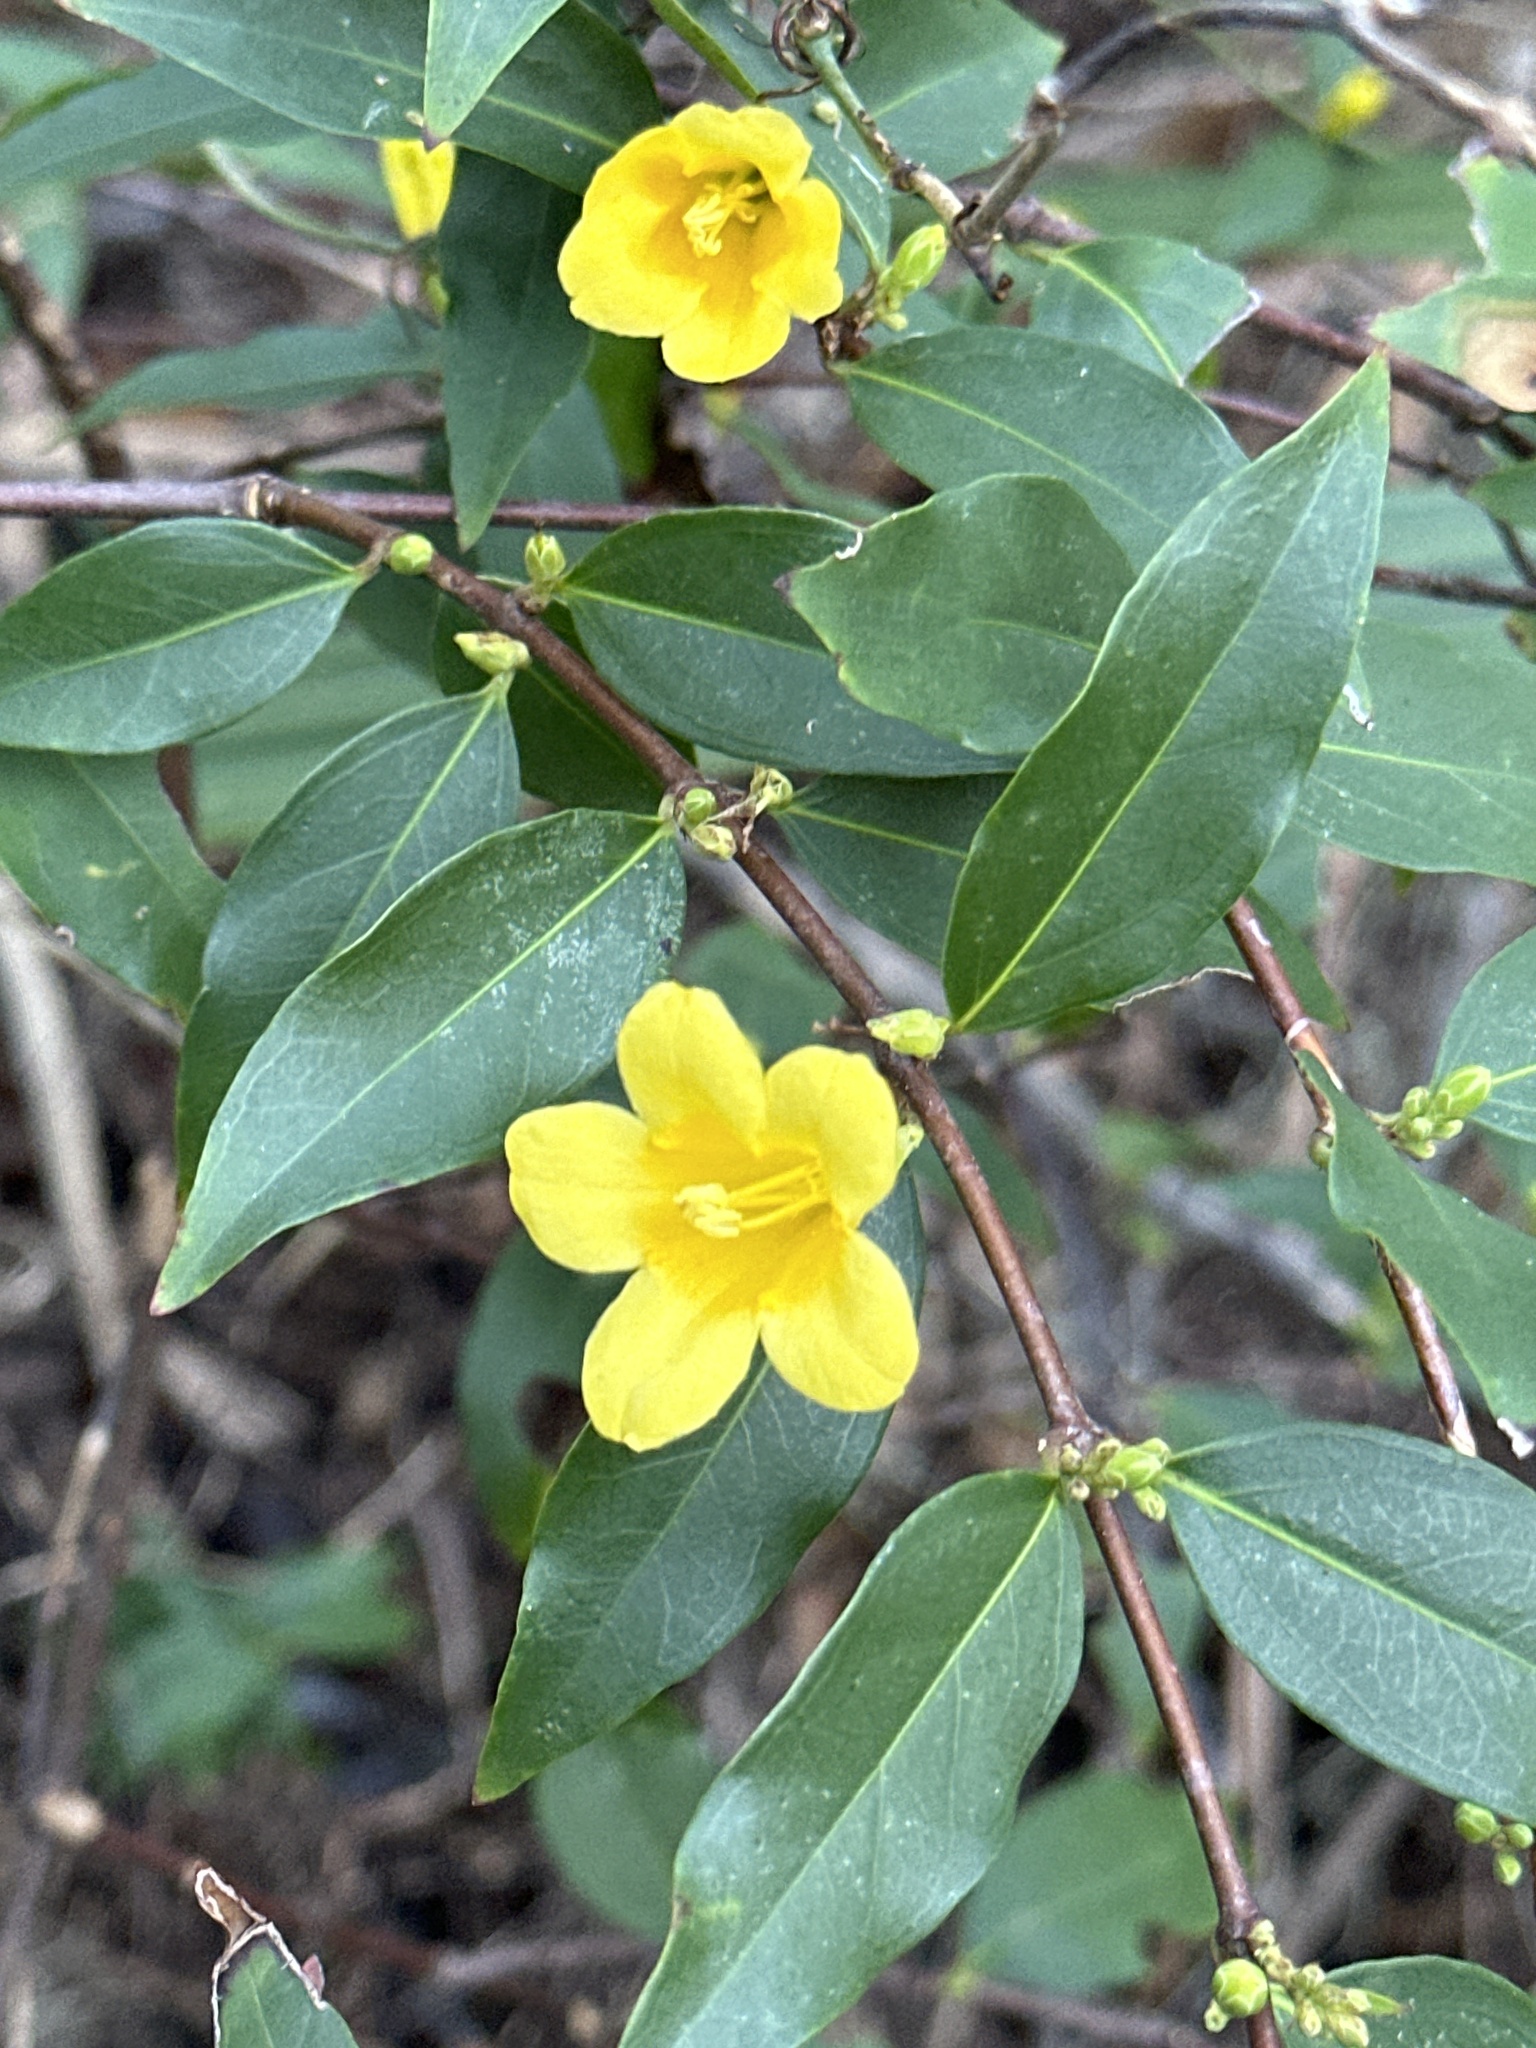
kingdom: Plantae
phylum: Tracheophyta
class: Magnoliopsida
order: Gentianales
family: Gelsemiaceae
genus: Gelsemium
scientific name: Gelsemium sempervirens
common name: Carolina-jasmine
